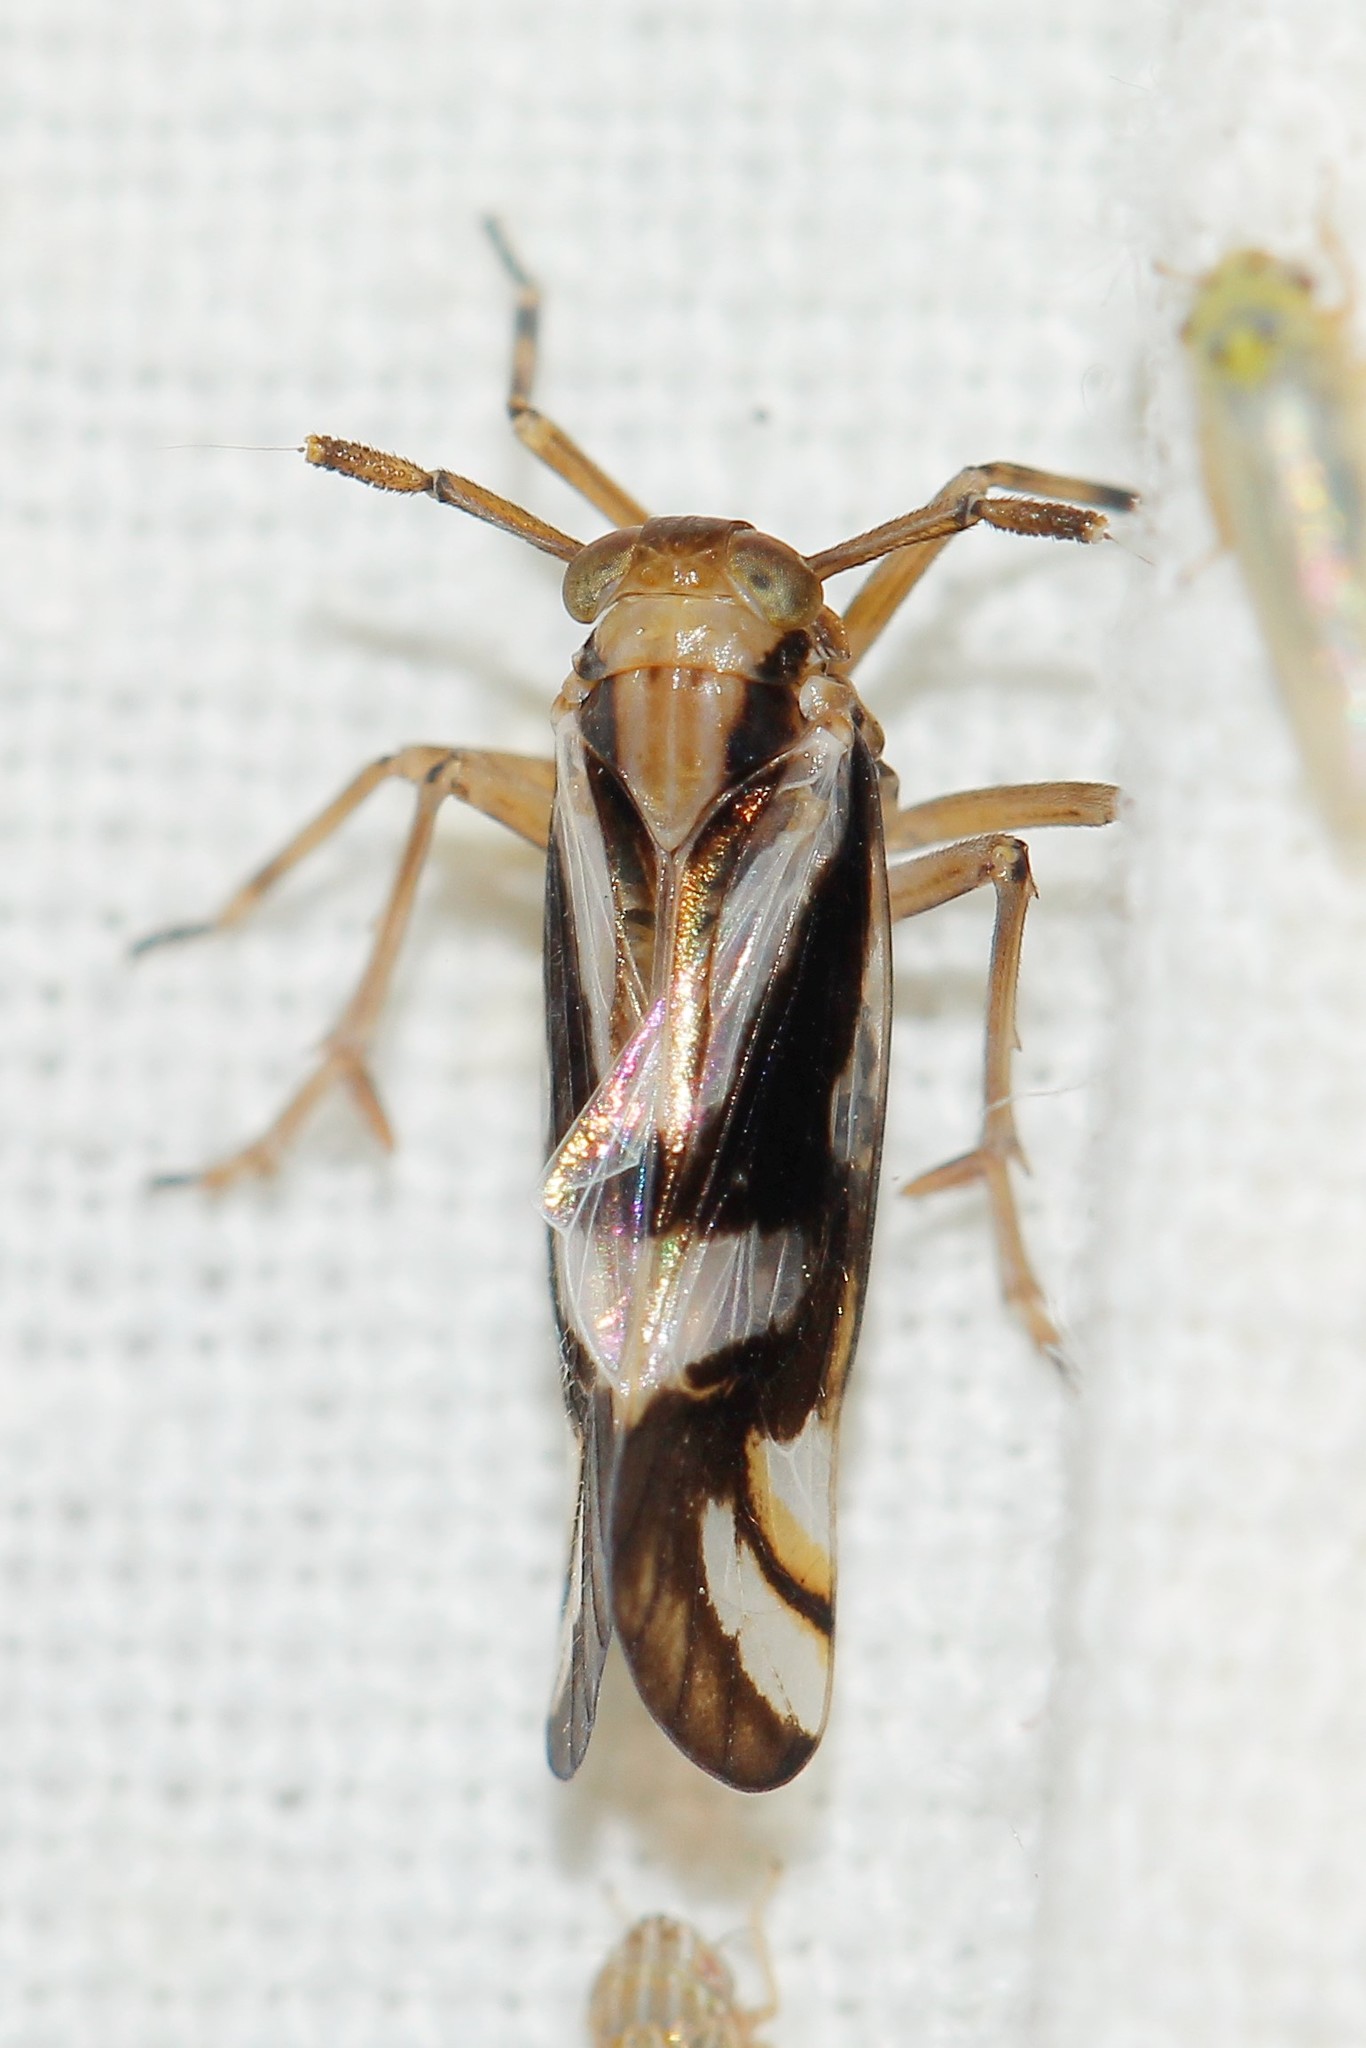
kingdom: Animalia
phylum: Arthropoda
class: Insecta
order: Hemiptera
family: Delphacidae
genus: Delphax
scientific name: Delphax crassicornis
